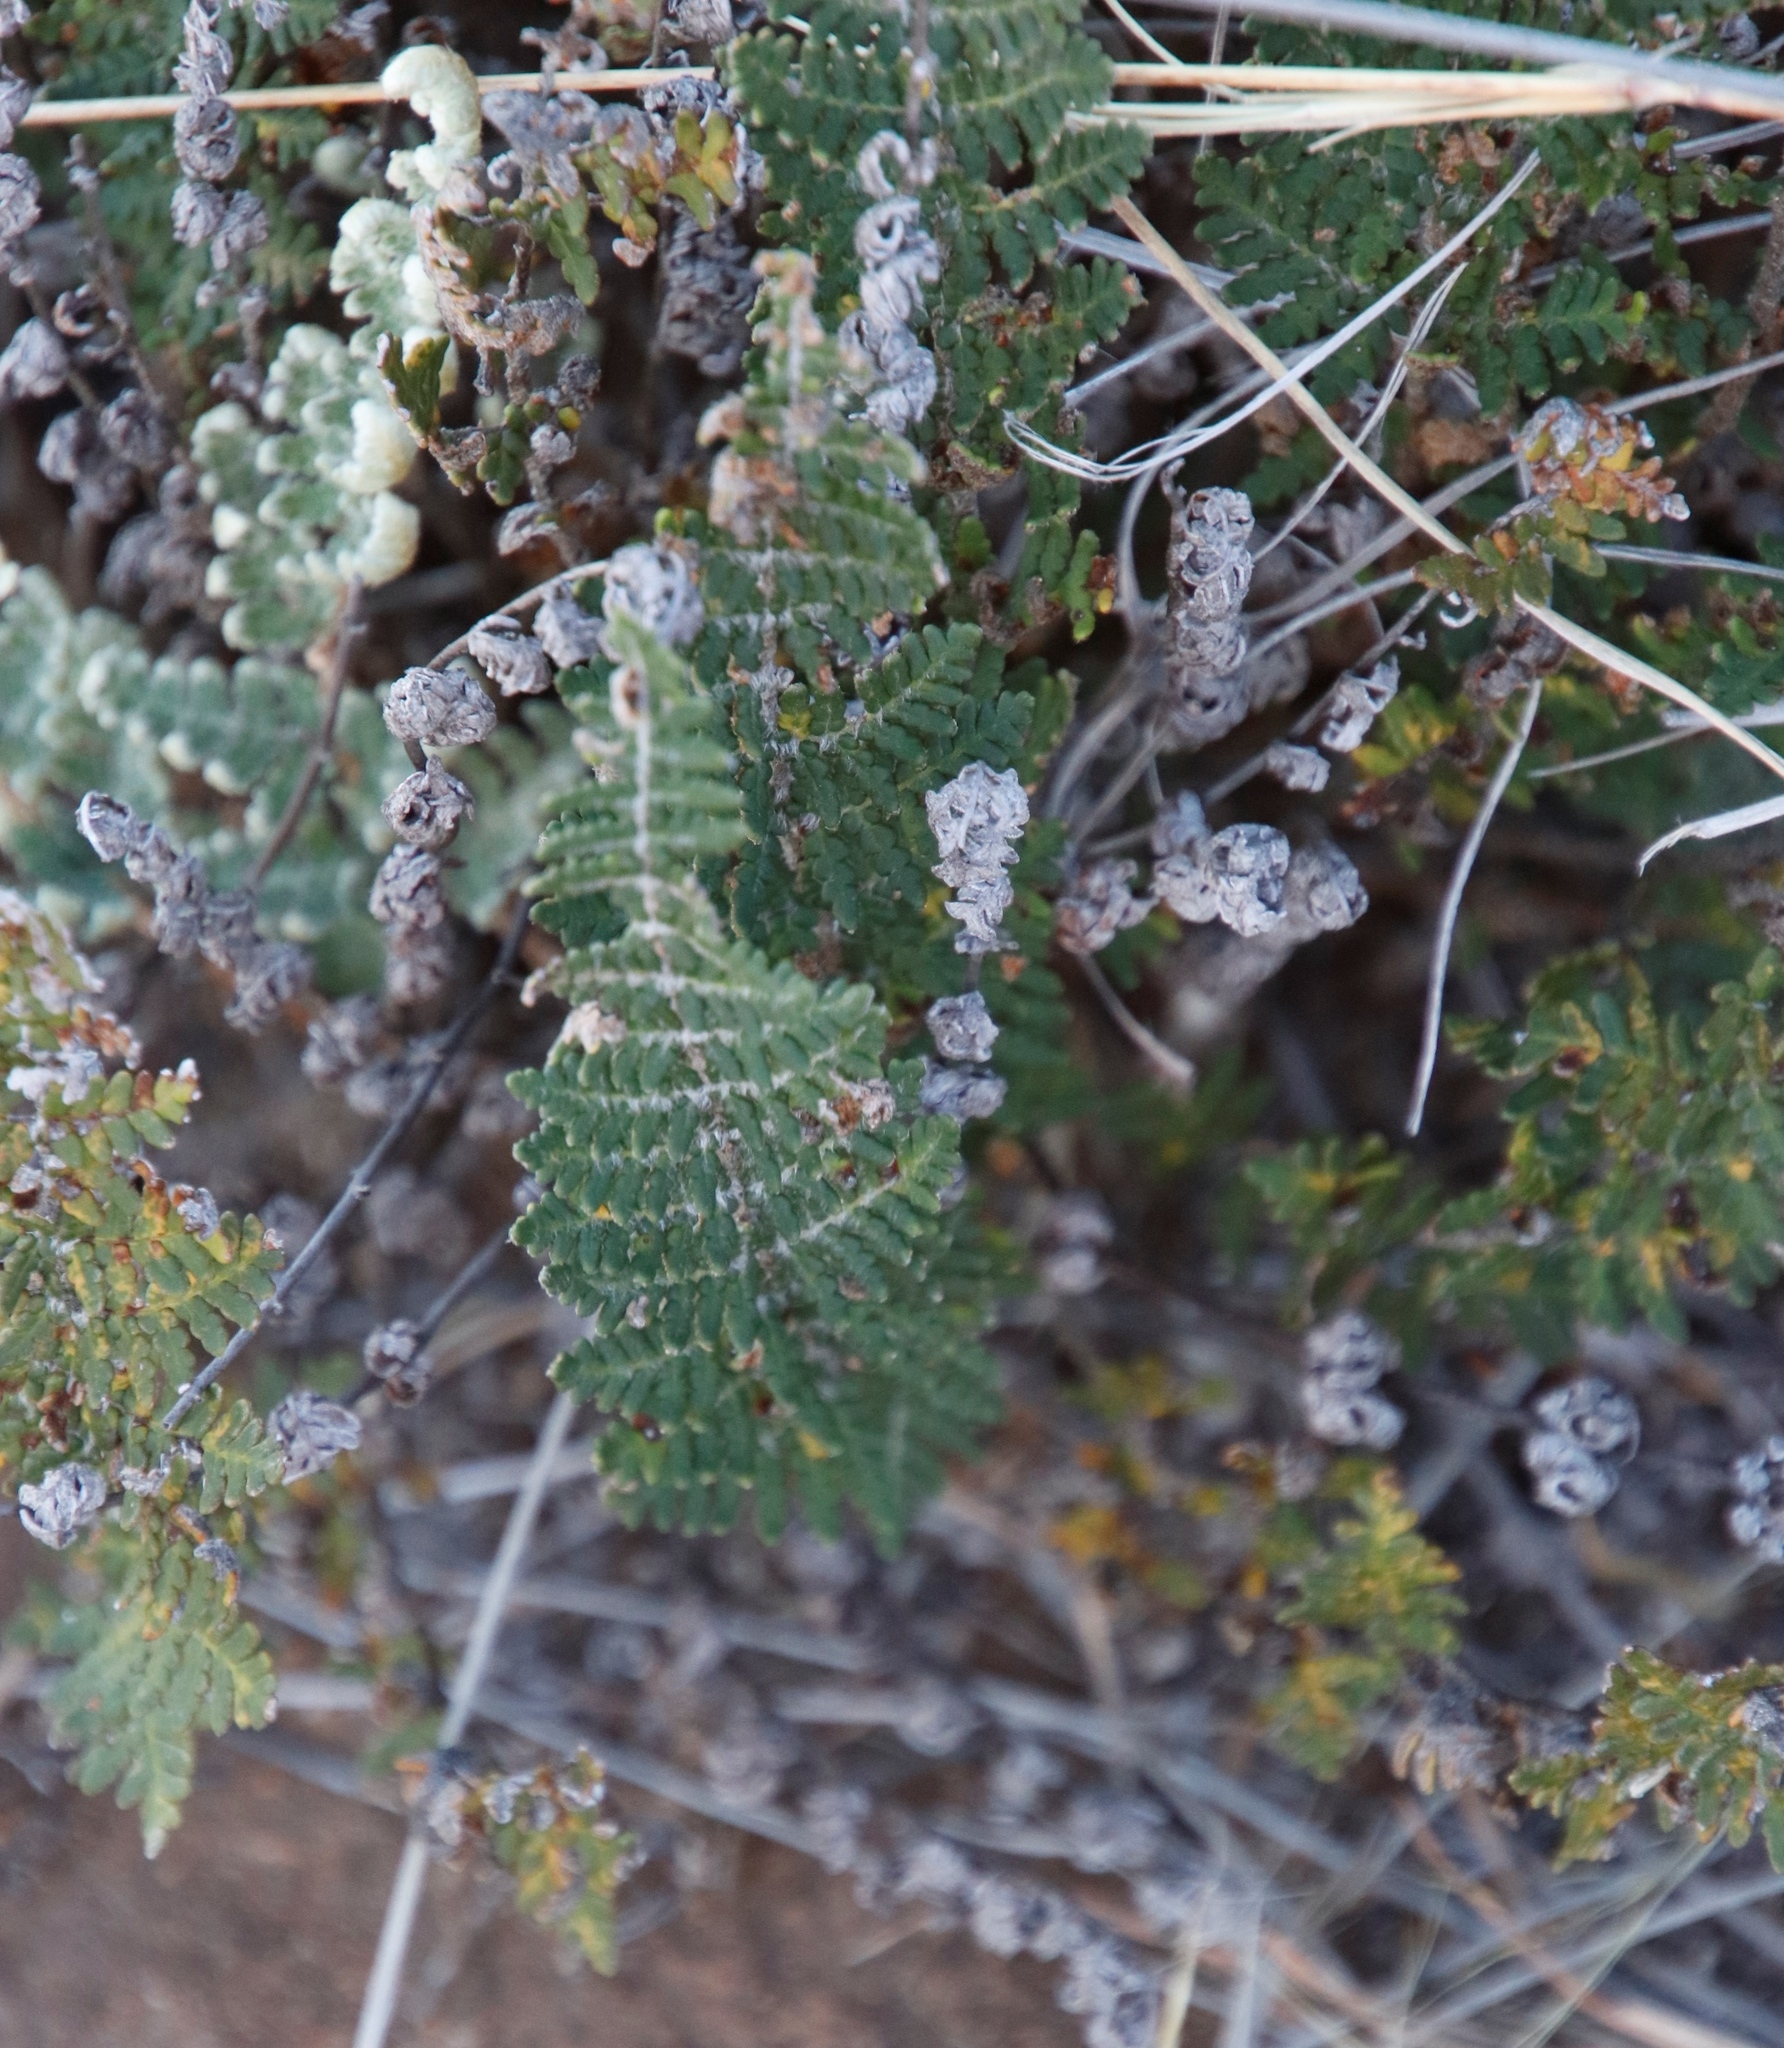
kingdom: Plantae
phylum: Tracheophyta
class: Polypodiopsida
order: Polypodiales
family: Pteridaceae
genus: Cheilanthes
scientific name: Cheilanthes eckloniana
